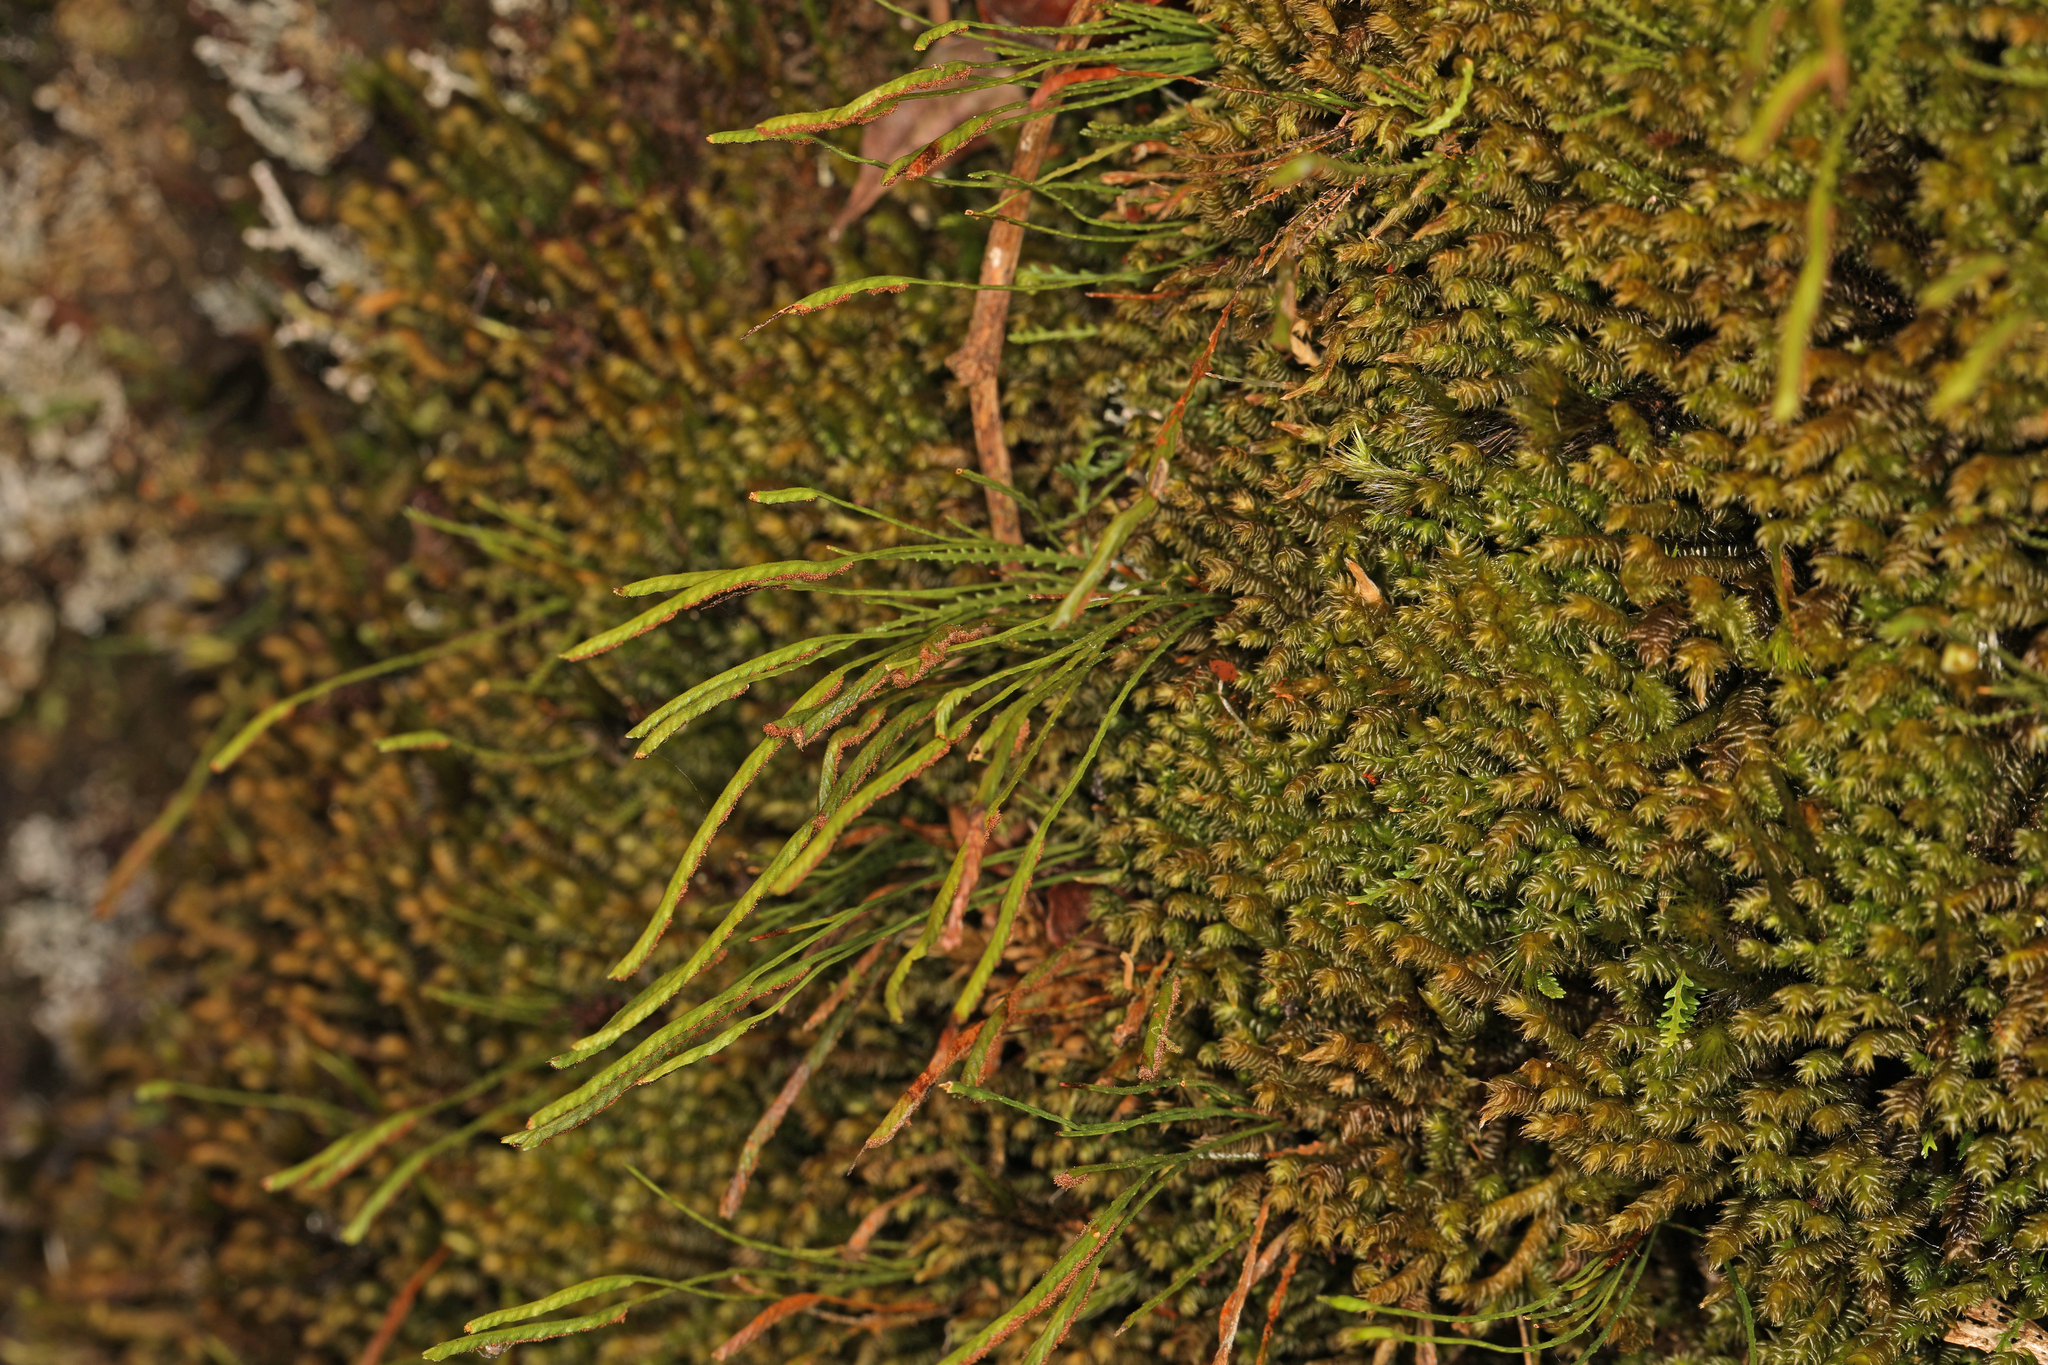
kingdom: Plantae
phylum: Tracheophyta
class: Polypodiopsida
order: Polypodiales
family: Polypodiaceae
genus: Cochlidium
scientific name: Cochlidium serrulatum
